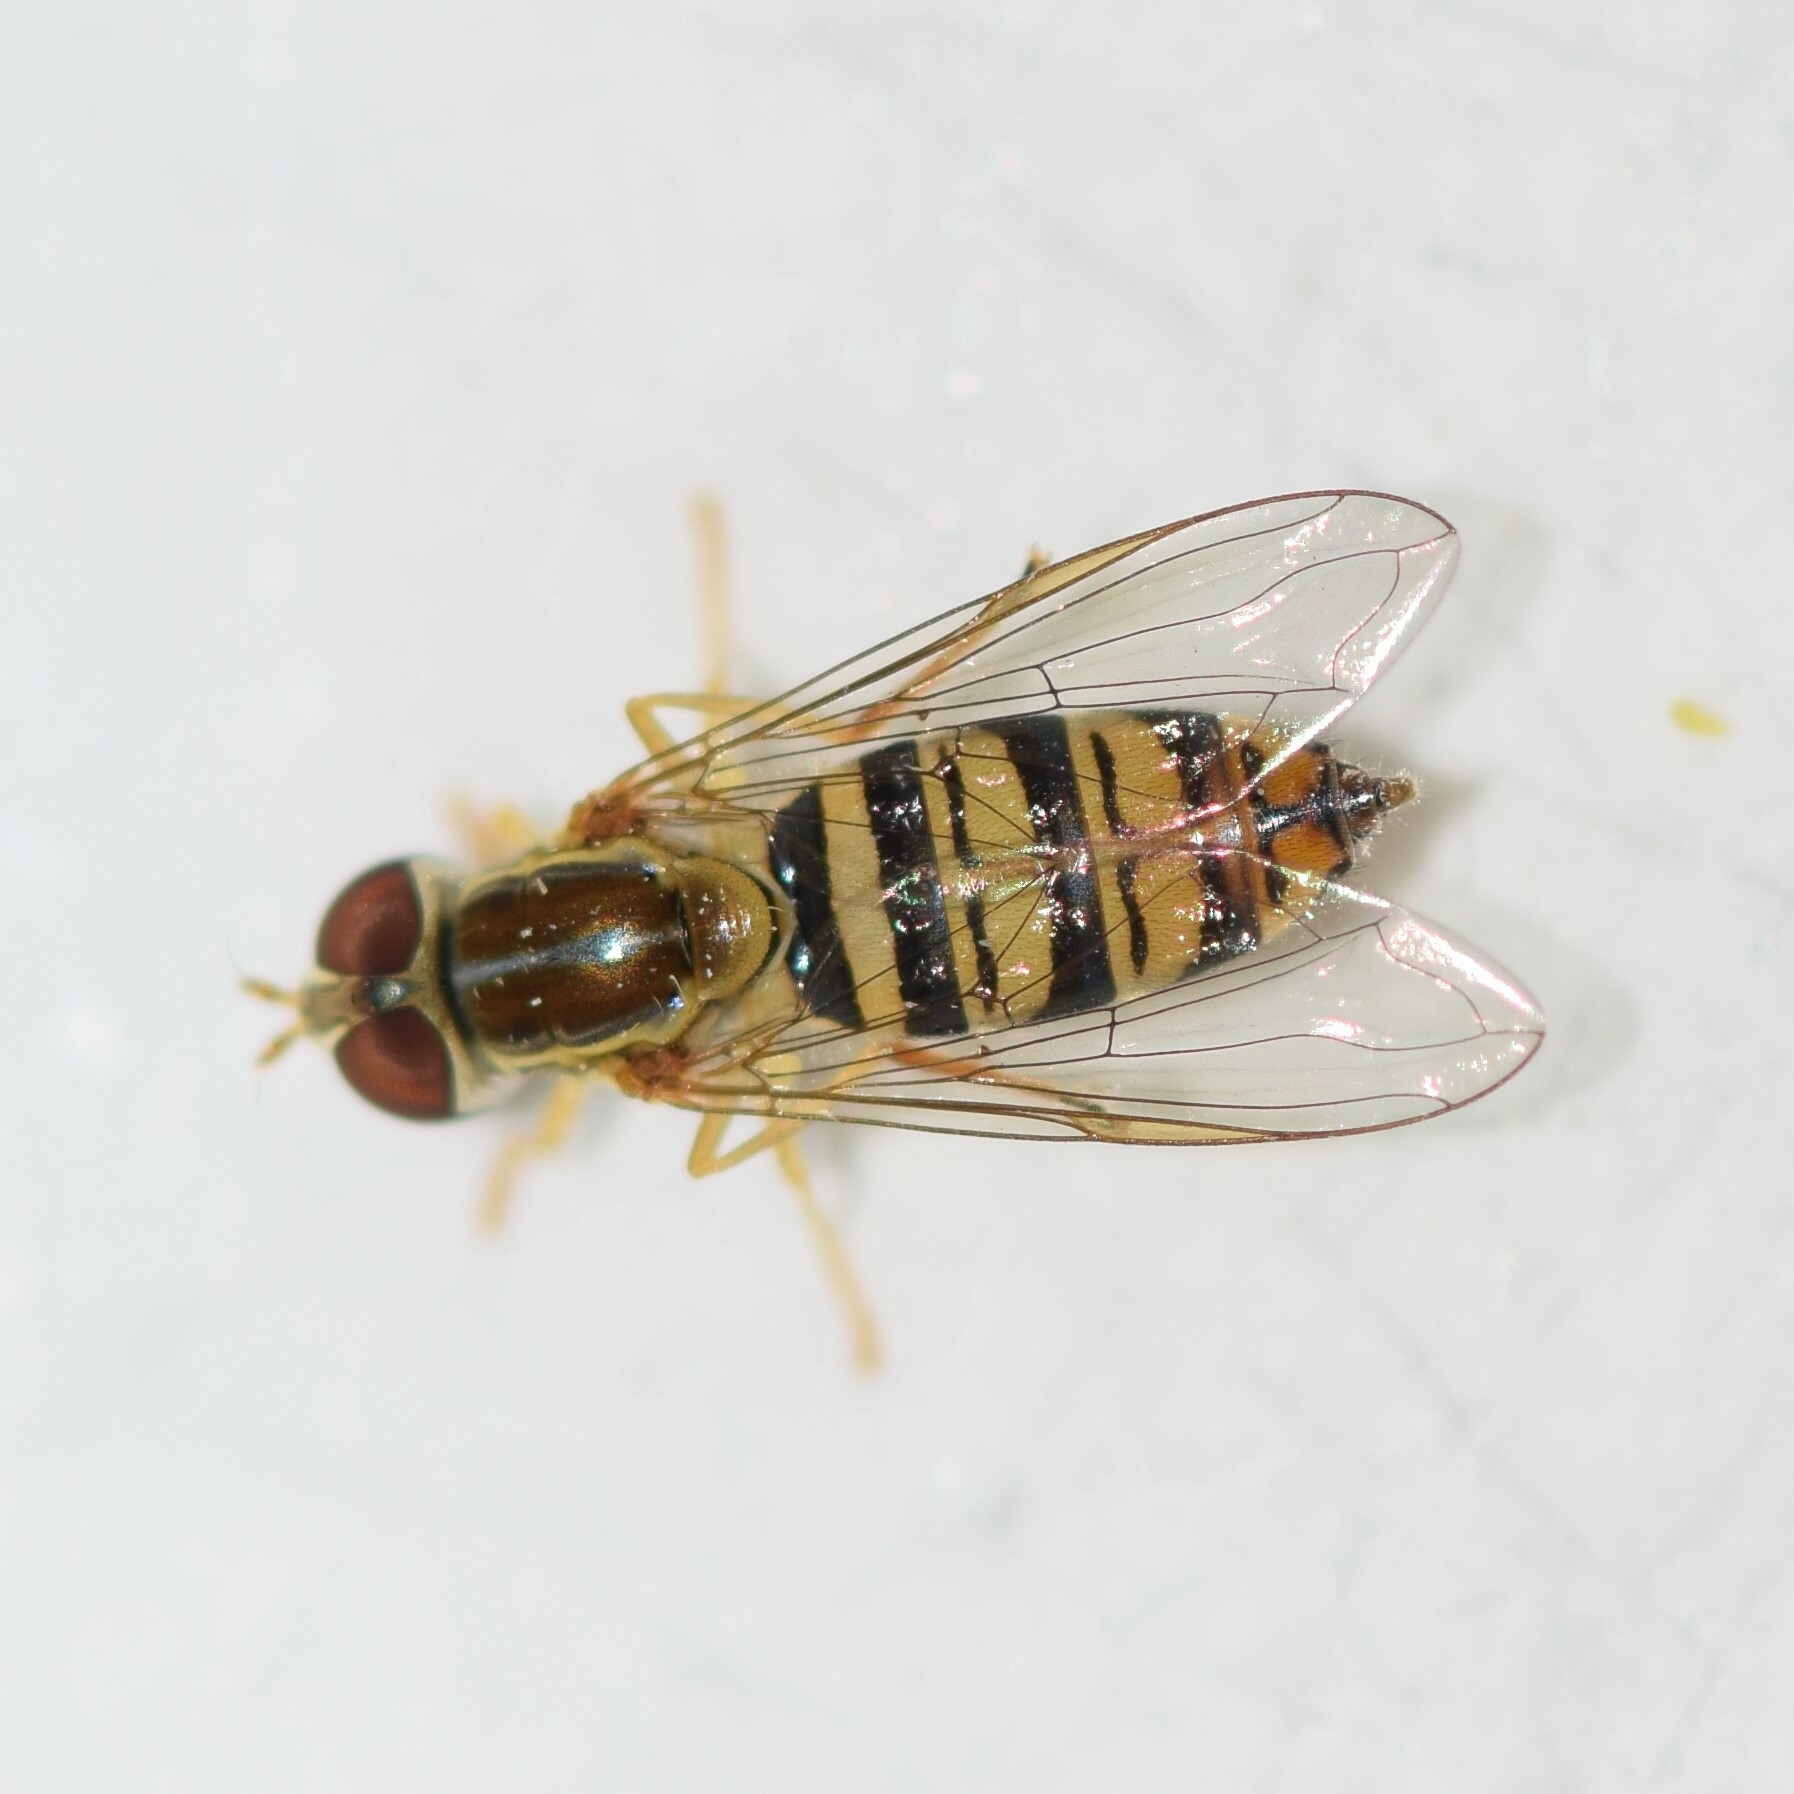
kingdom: Animalia
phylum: Arthropoda
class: Insecta
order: Diptera
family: Syrphidae
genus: Toxomerus
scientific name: Toxomerus politus
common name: Maize calligrapher
